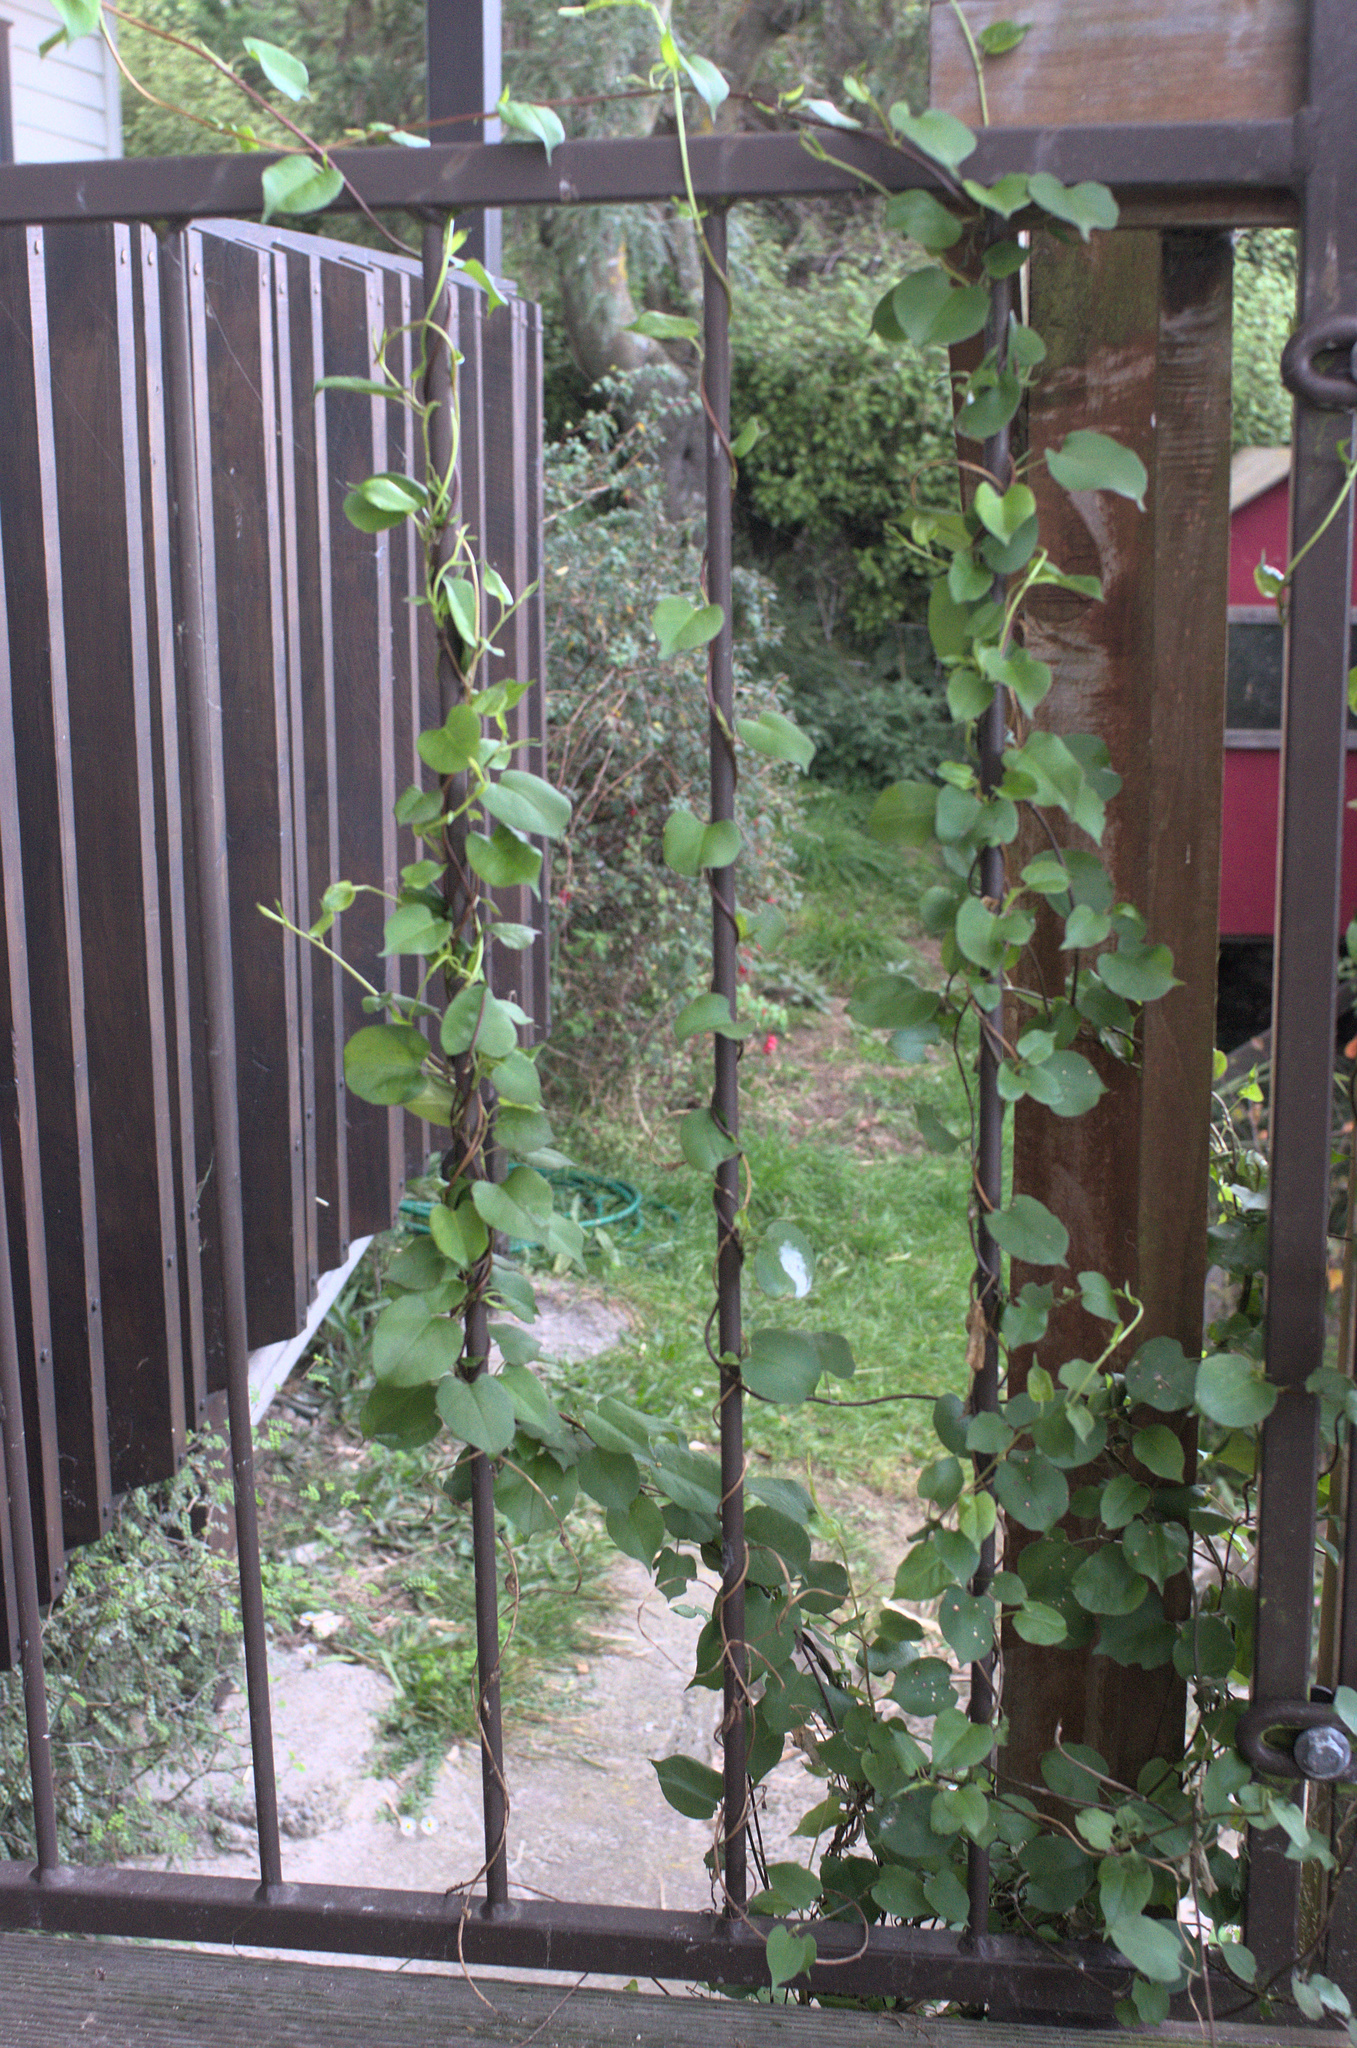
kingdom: Plantae
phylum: Tracheophyta
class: Magnoliopsida
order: Caryophyllales
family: Polygonaceae
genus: Muehlenbeckia
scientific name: Muehlenbeckia australis
